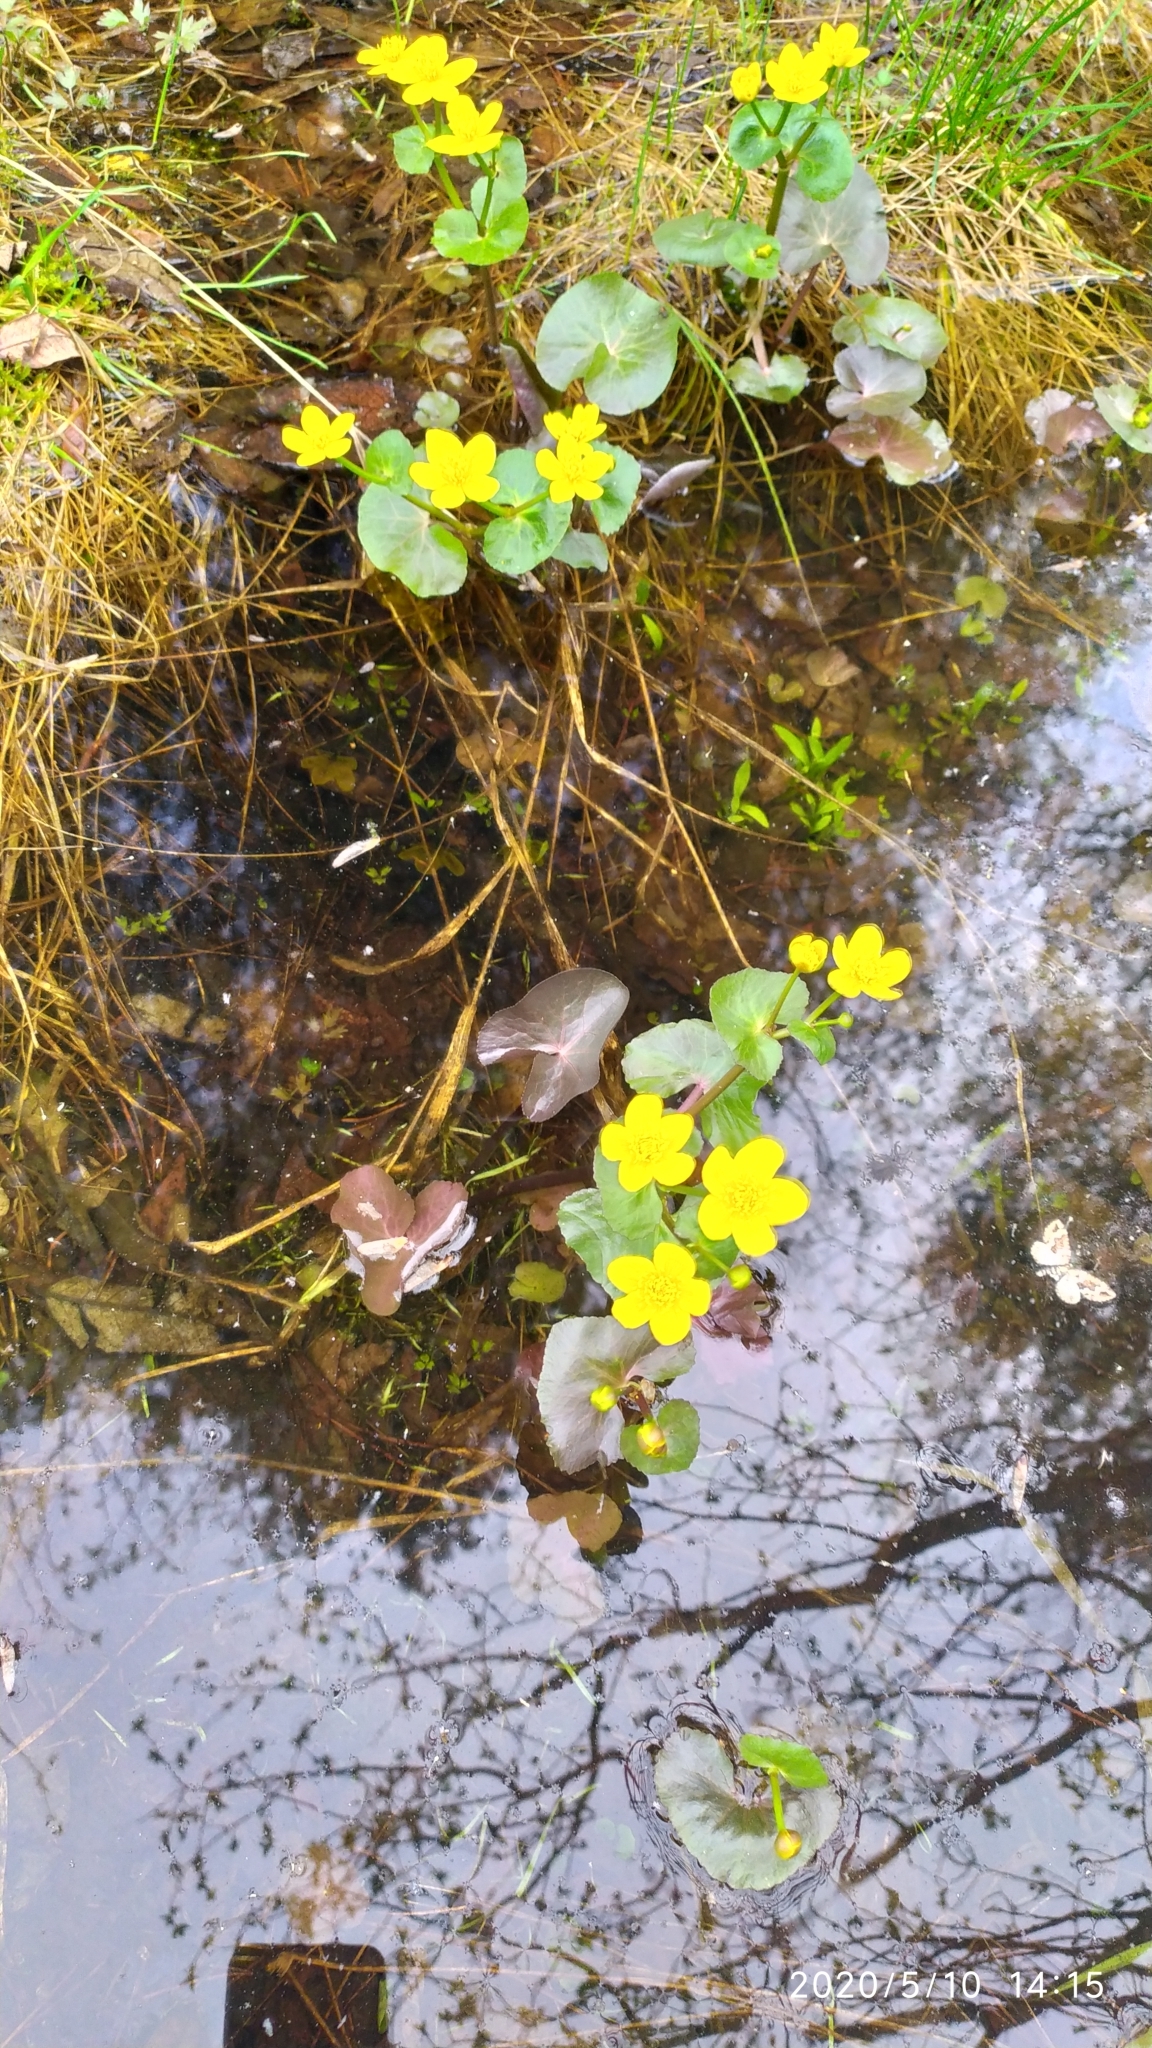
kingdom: Plantae
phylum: Tracheophyta
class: Magnoliopsida
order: Ranunculales
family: Ranunculaceae
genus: Caltha
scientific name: Caltha palustris
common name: Marsh marigold
